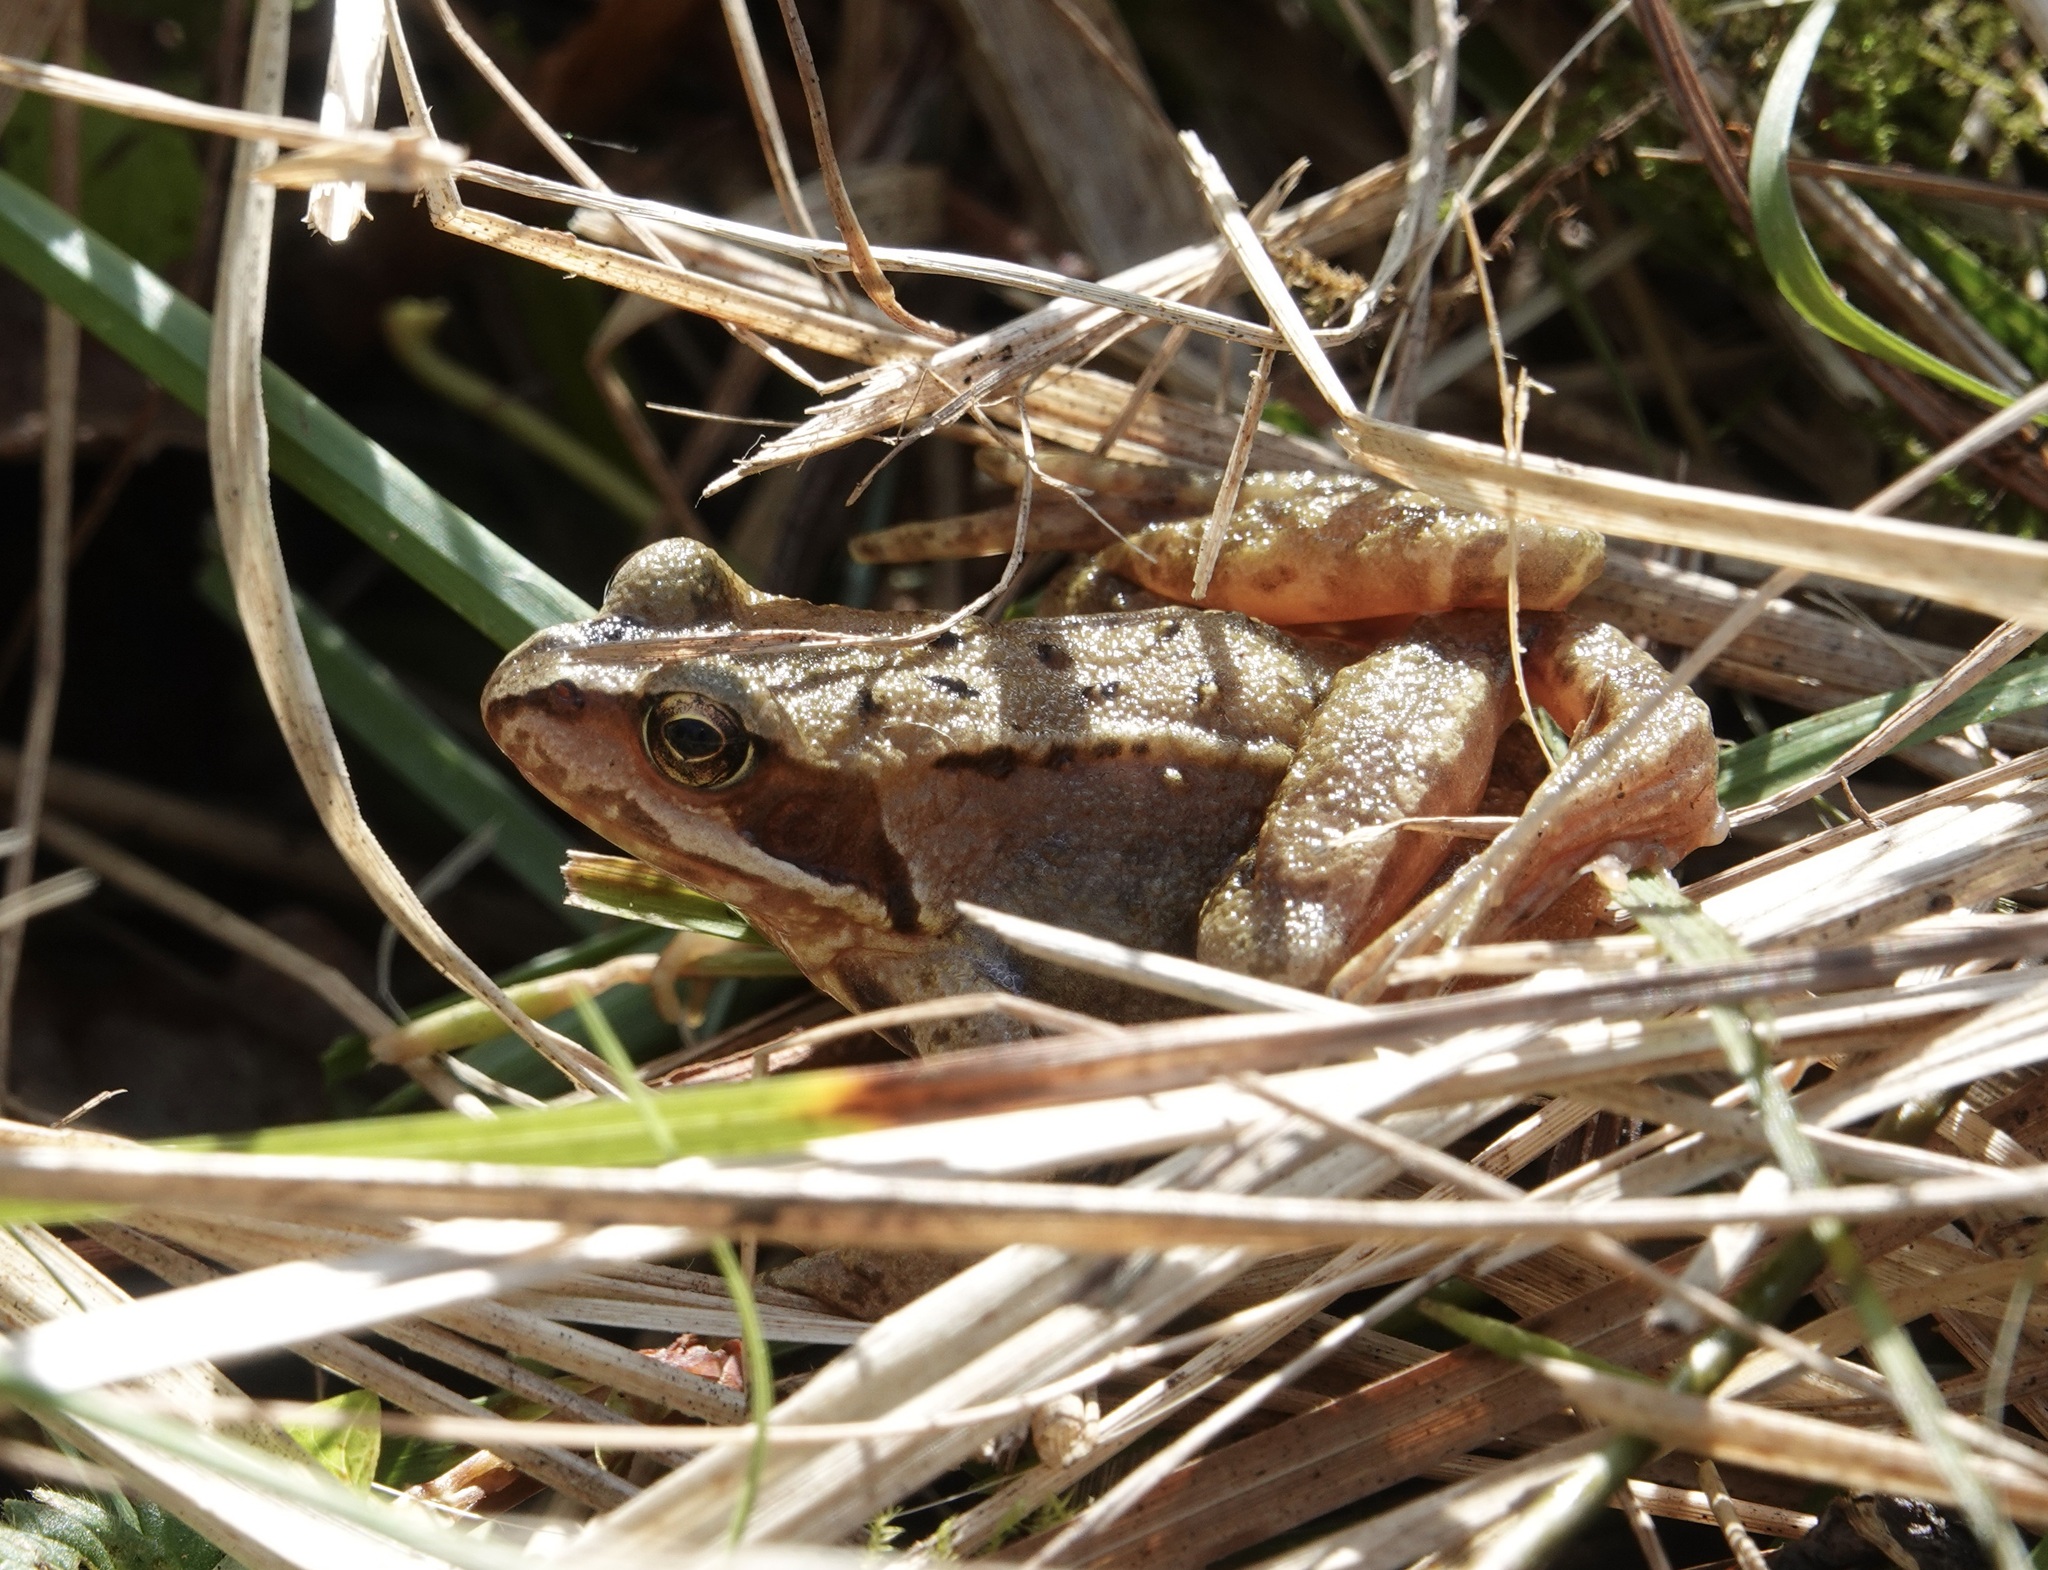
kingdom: Animalia
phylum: Chordata
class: Amphibia
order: Anura
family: Ranidae
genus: Rana
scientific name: Rana temporaria
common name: Common frog
